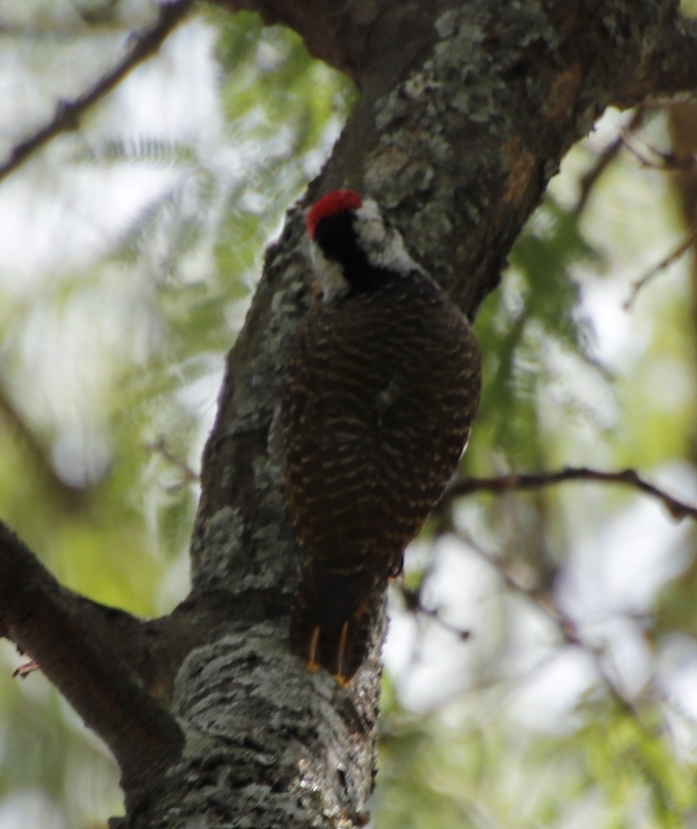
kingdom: Animalia
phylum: Chordata
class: Aves
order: Piciformes
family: Picidae
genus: Chloropicus
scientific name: Chloropicus namaquus
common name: Bearded woodpecker
